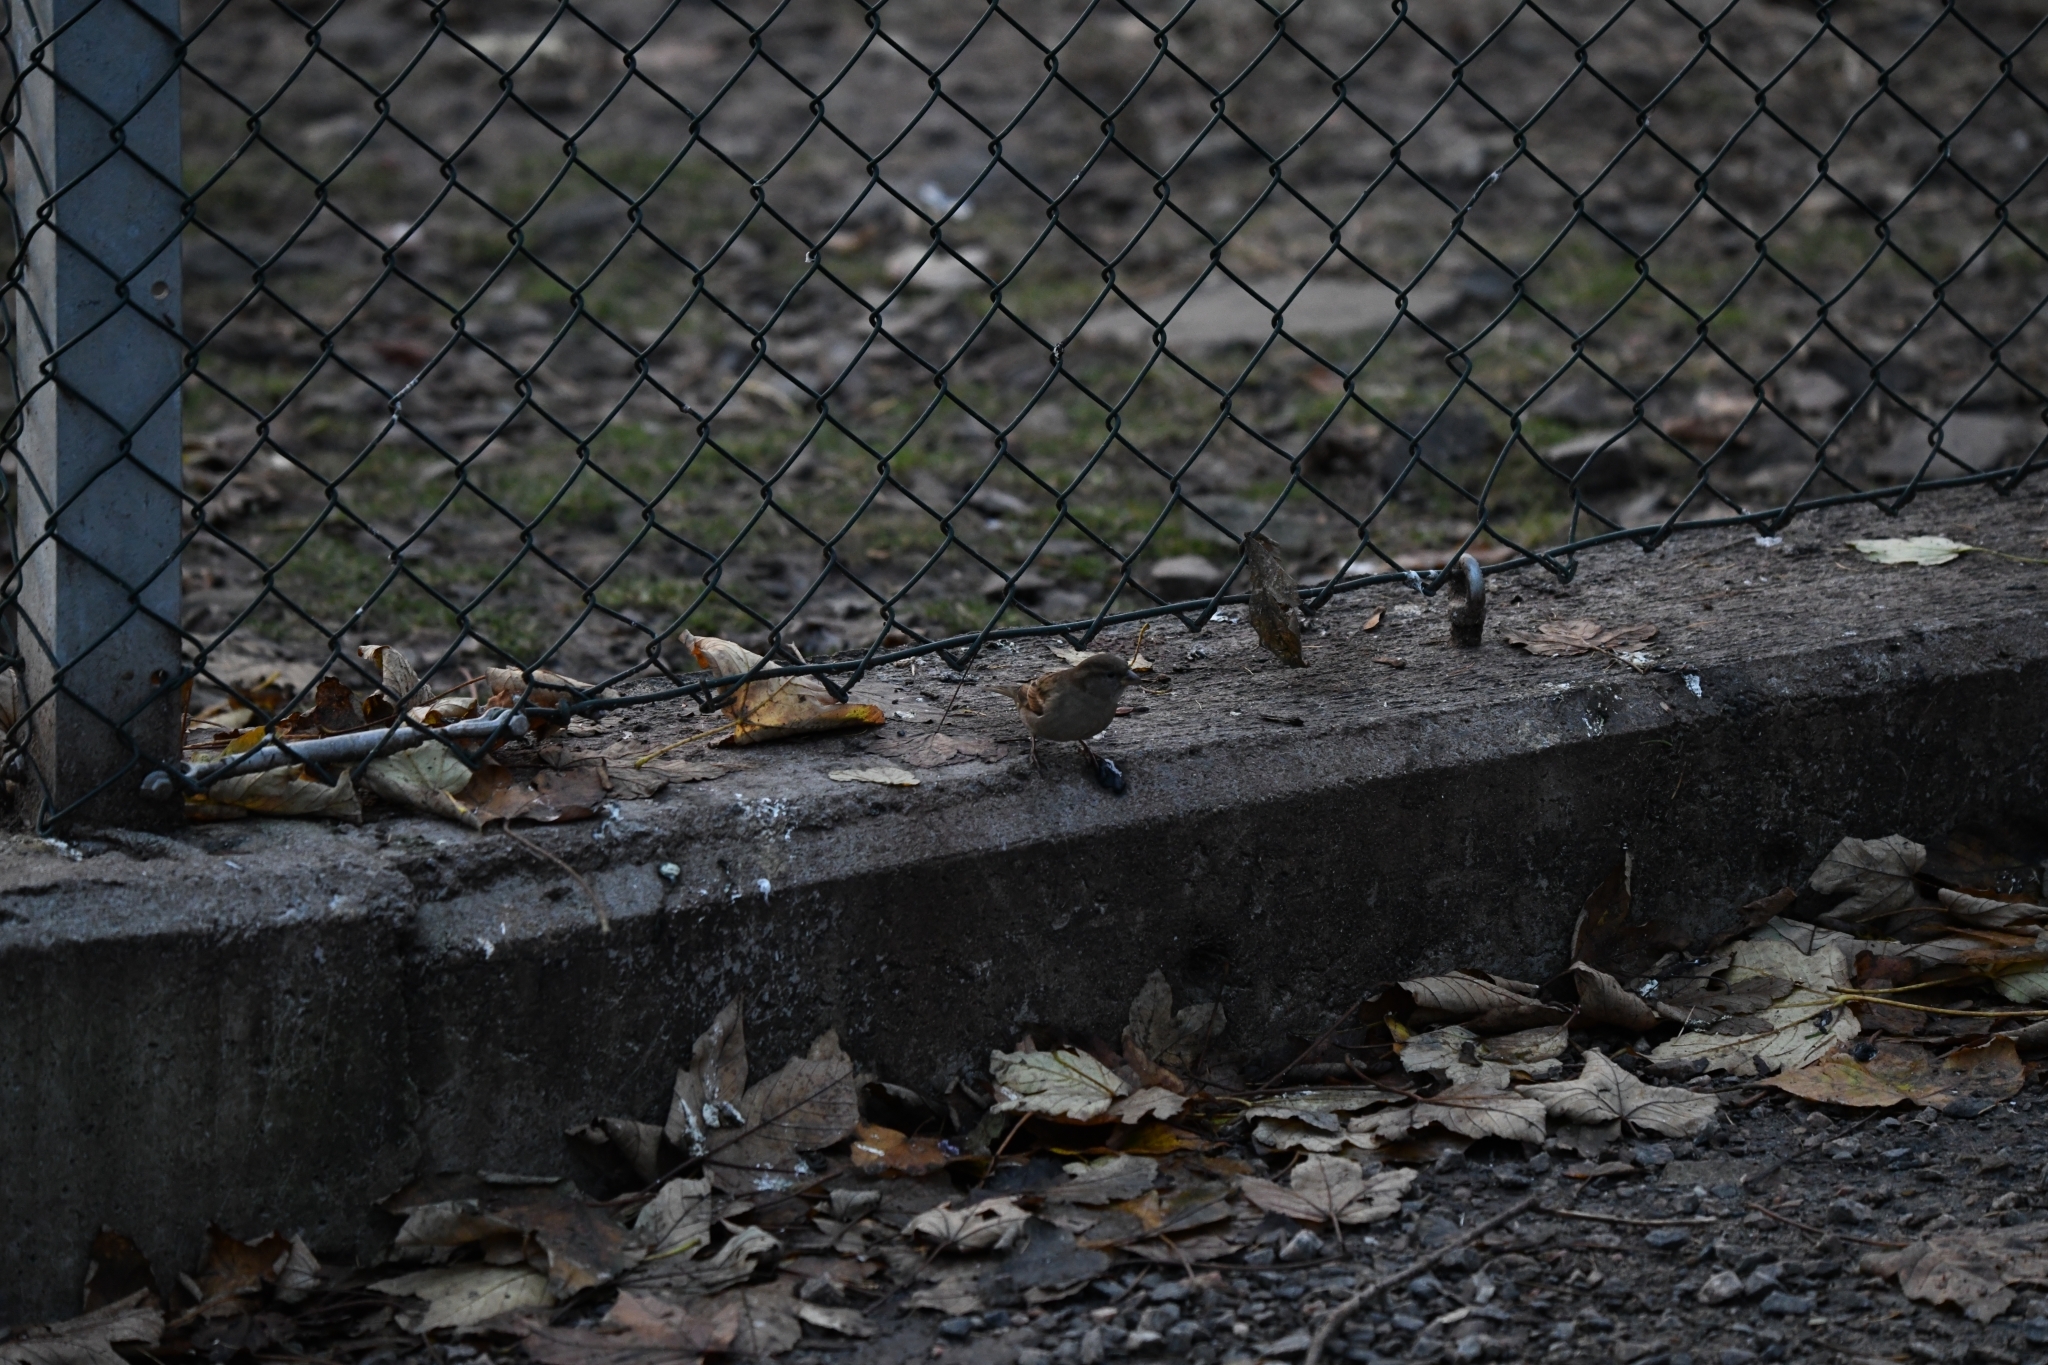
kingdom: Animalia
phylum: Chordata
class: Aves
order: Passeriformes
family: Passeridae
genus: Passer
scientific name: Passer domesticus
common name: House sparrow
